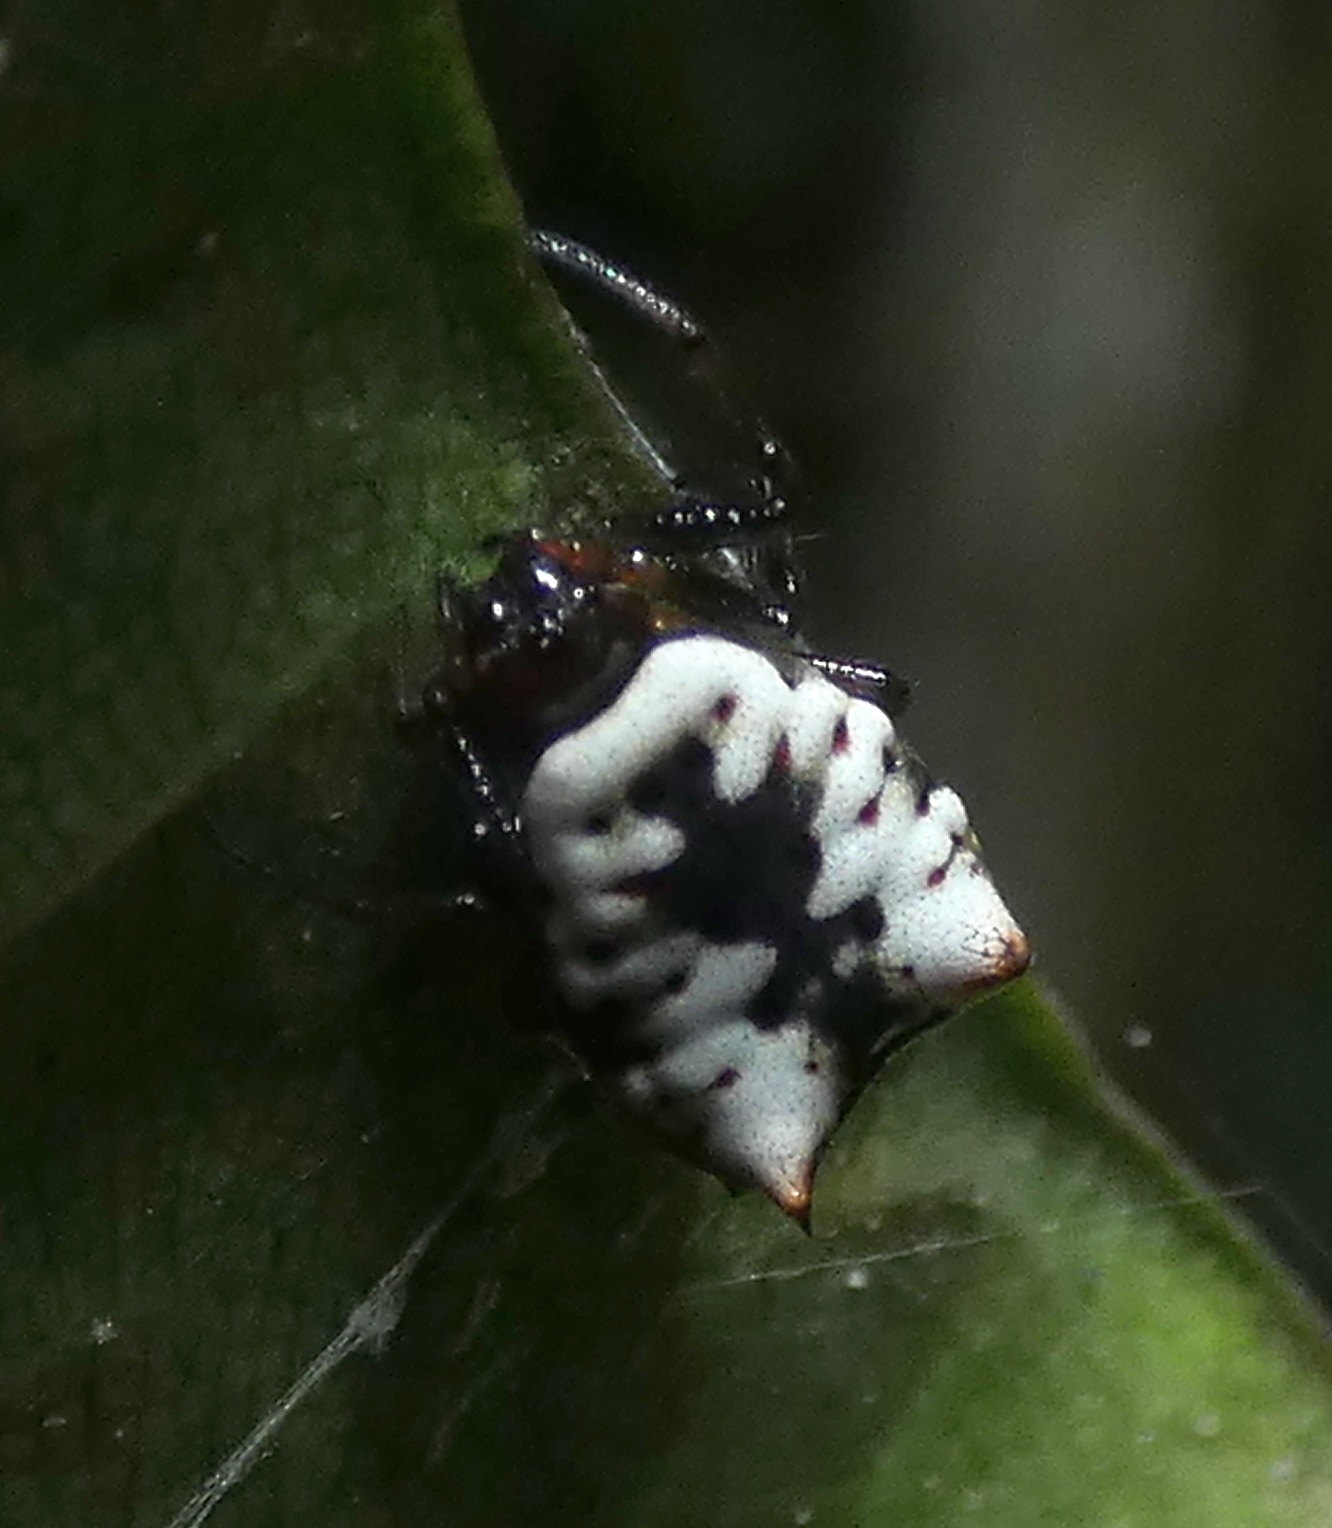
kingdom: Animalia
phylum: Arthropoda
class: Arachnida
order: Araneae
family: Araneidae
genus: Micrathena
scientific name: Micrathena patruelis
